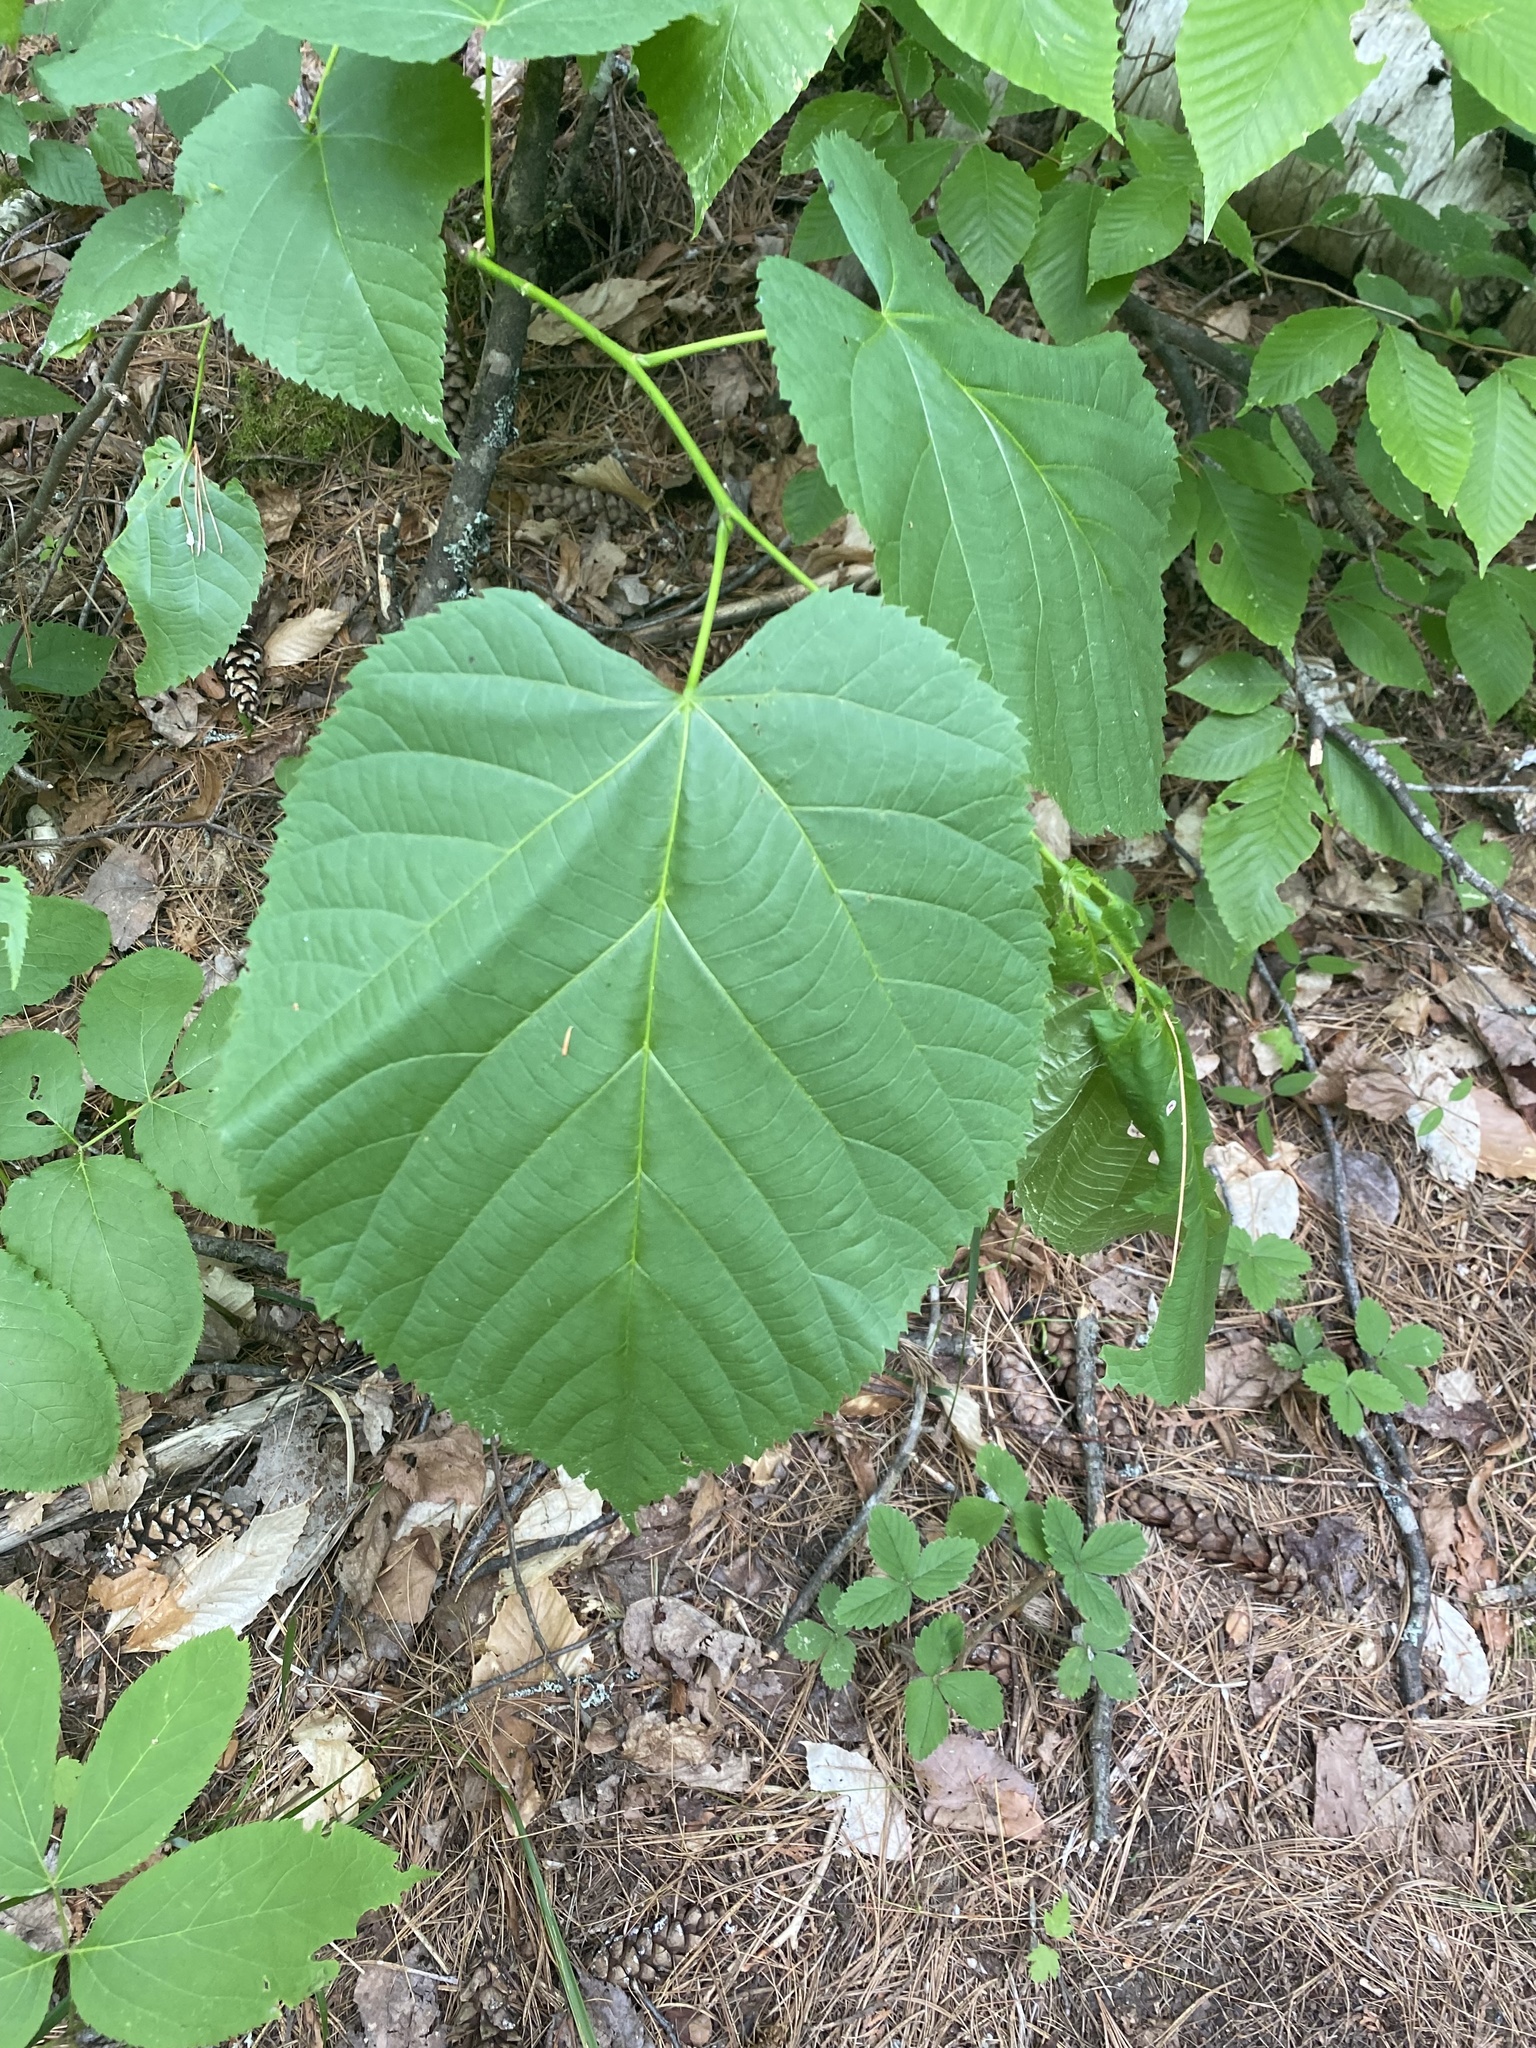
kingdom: Plantae
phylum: Tracheophyta
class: Magnoliopsida
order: Malvales
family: Malvaceae
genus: Tilia
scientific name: Tilia americana
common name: Basswood
